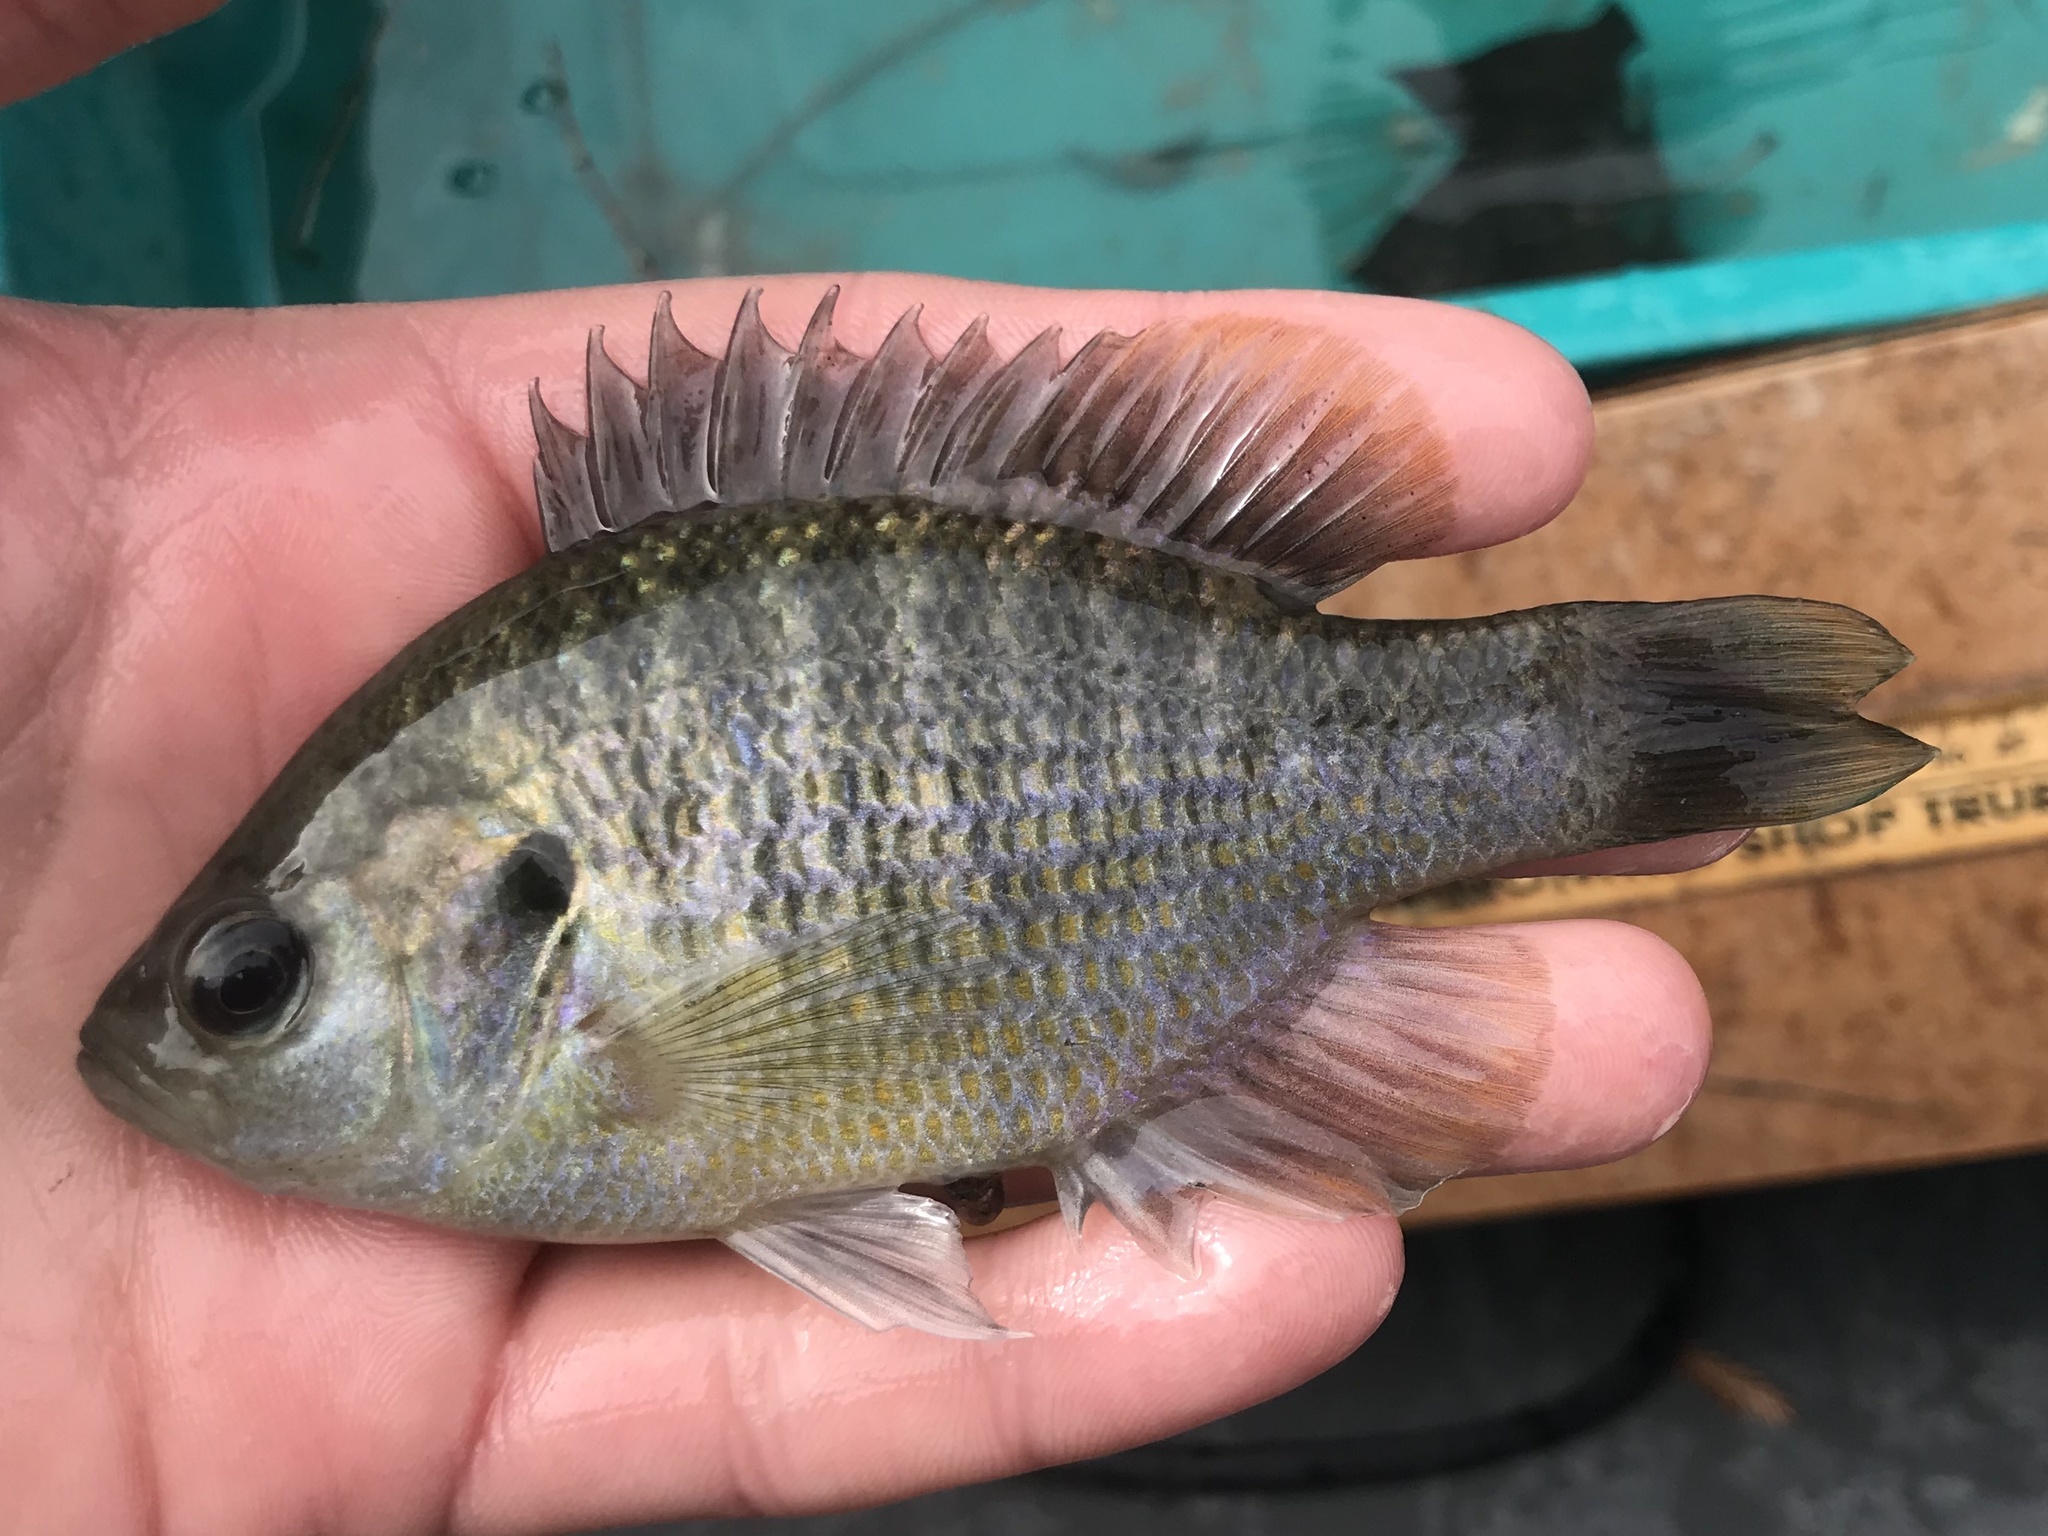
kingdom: Animalia
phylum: Chordata
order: Perciformes
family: Centrarchidae
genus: Lepomis
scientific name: Lepomis miniatus
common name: Redspotted sunfish
